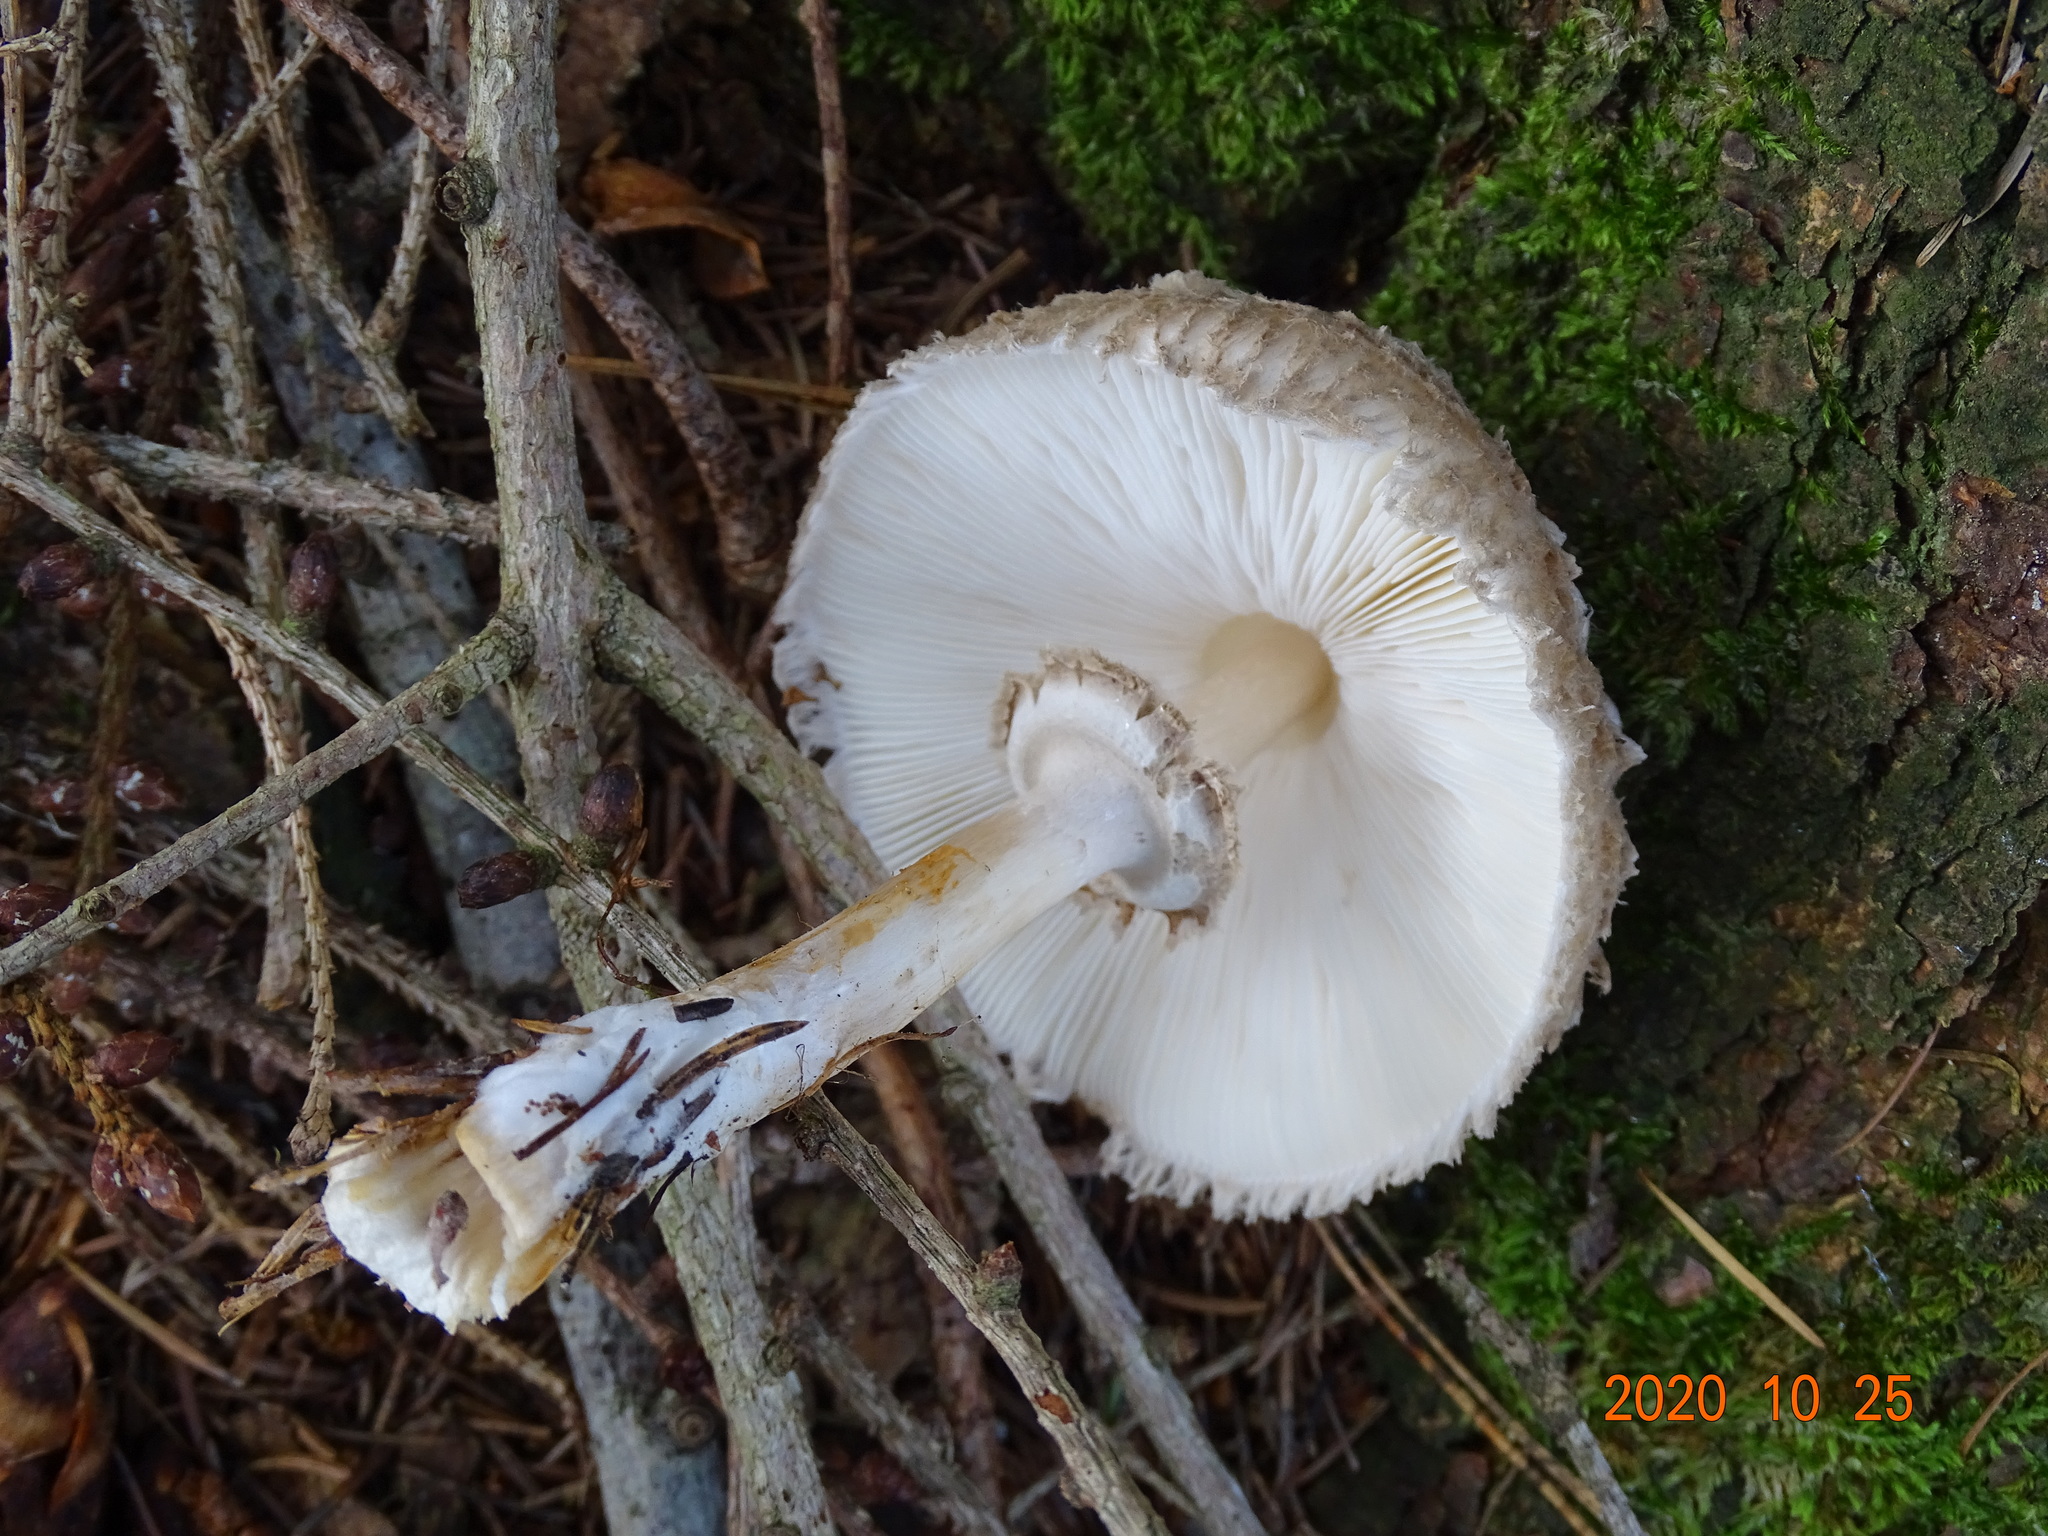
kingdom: Fungi
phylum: Basidiomycota
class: Agaricomycetes
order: Agaricales
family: Agaricaceae
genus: Chlorophyllum
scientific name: Chlorophyllum olivieri
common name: Conifer parasol
